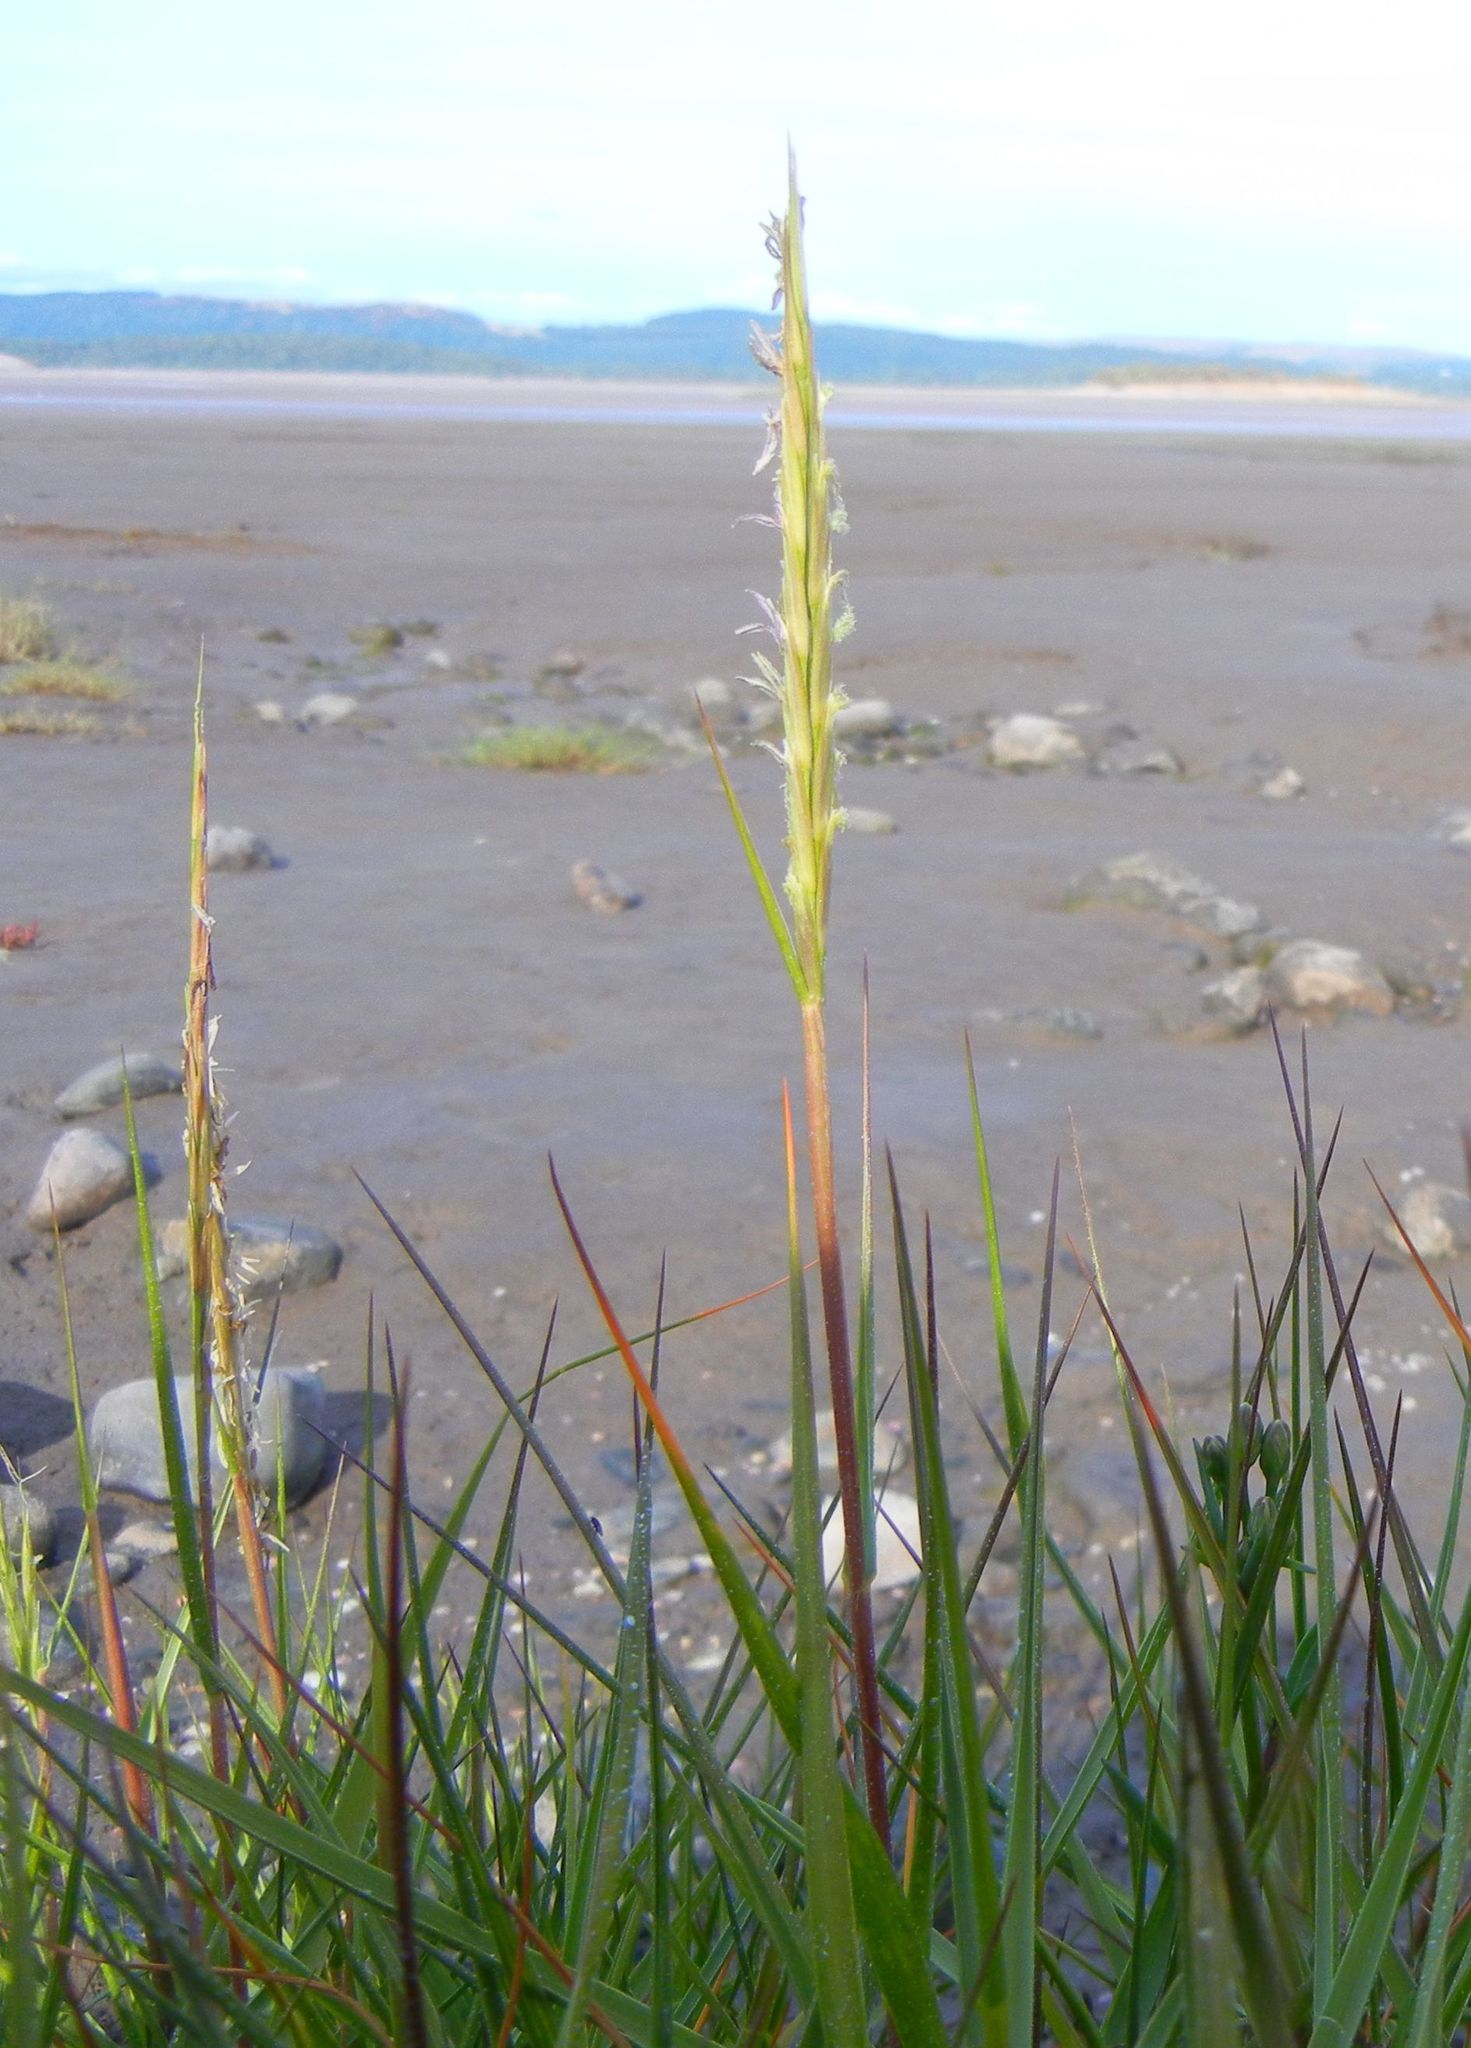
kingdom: Plantae
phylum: Tracheophyta
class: Liliopsida
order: Poales
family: Poaceae
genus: Sporobolus
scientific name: Sporobolus anglicus
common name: English cordgrass
